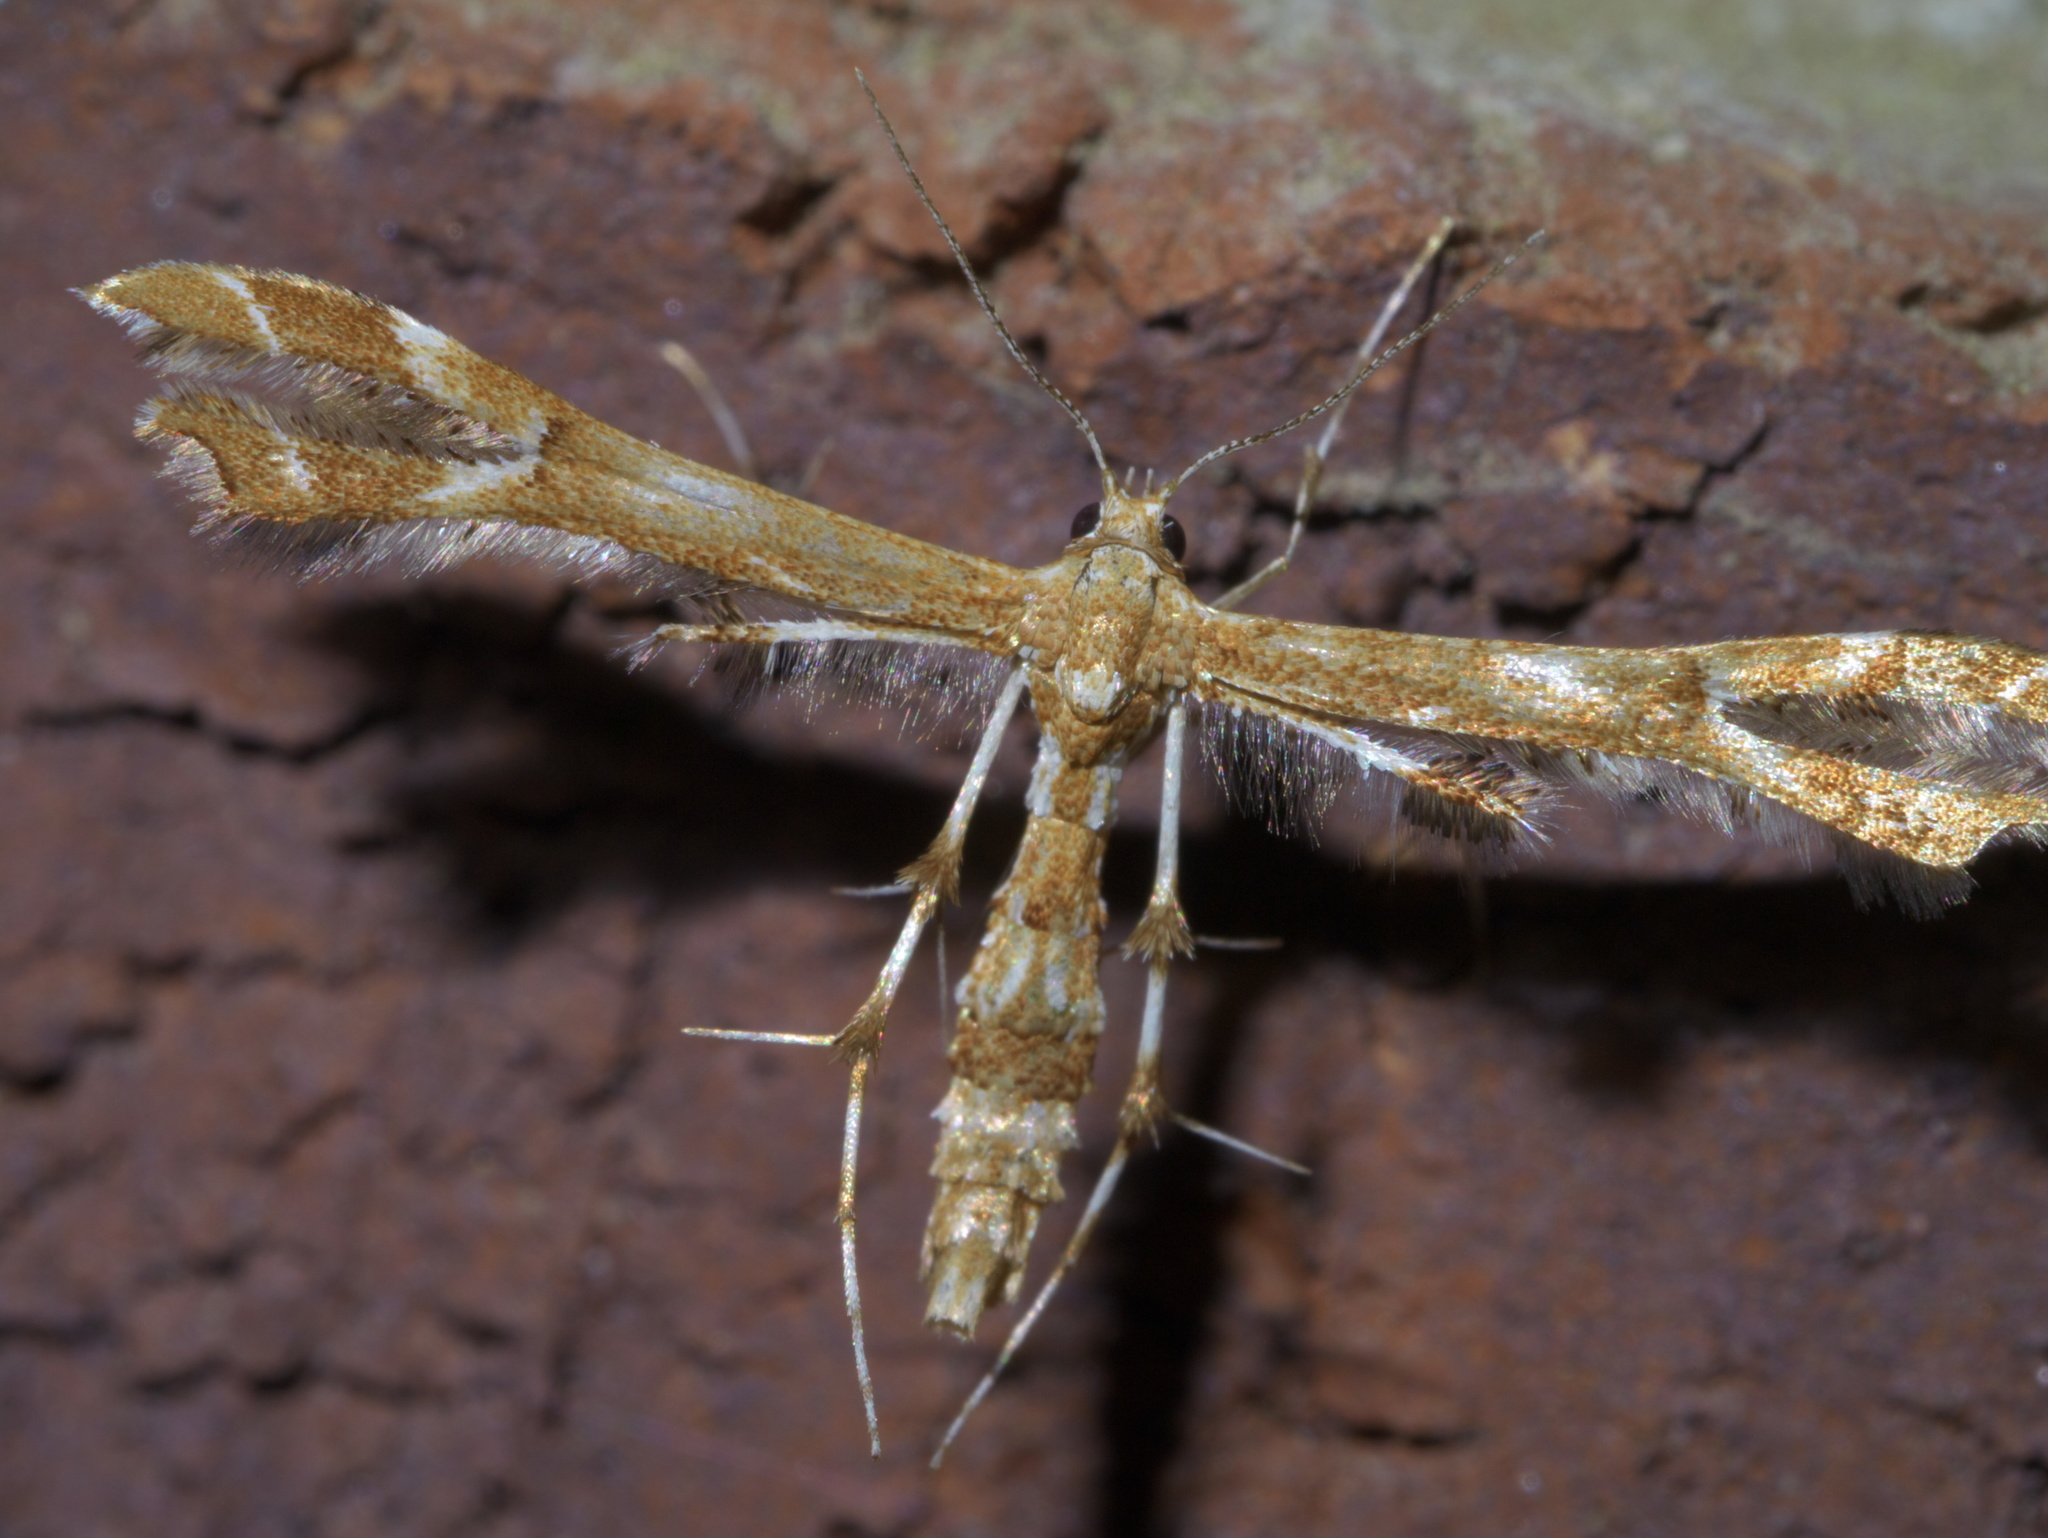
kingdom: Animalia
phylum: Arthropoda
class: Insecta
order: Lepidoptera
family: Pterophoridae
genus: Geina
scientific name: Geina periscelidactylus
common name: Grape plume moth
